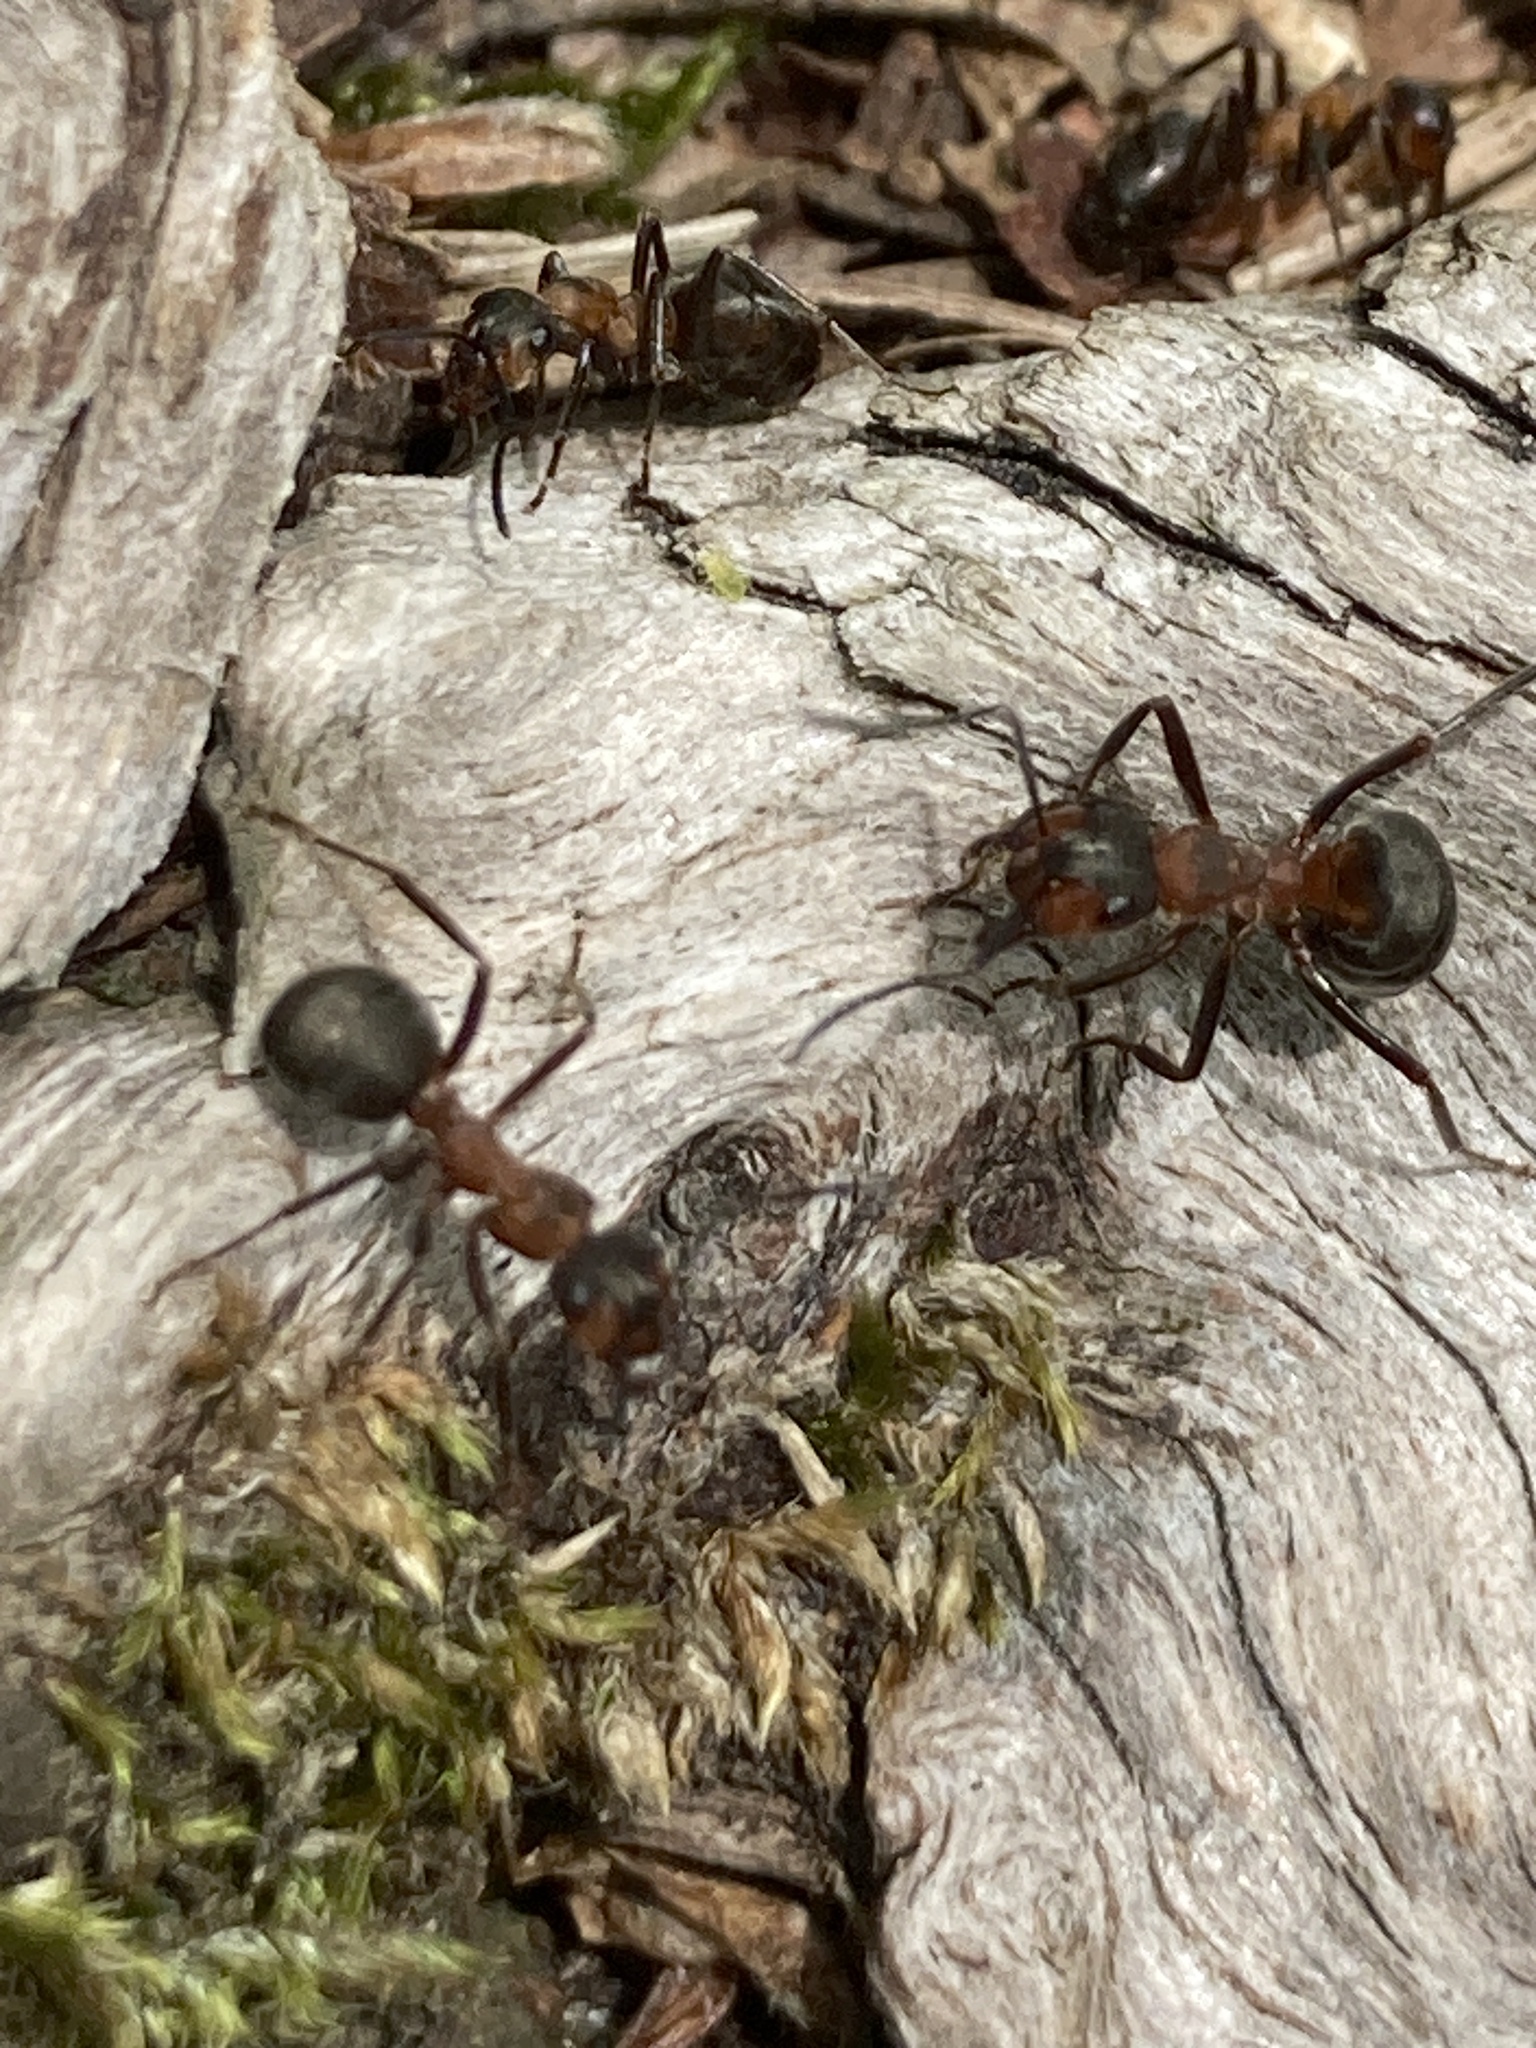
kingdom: Animalia
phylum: Arthropoda
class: Insecta
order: Hymenoptera
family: Formicidae
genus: Formica
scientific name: Formica
